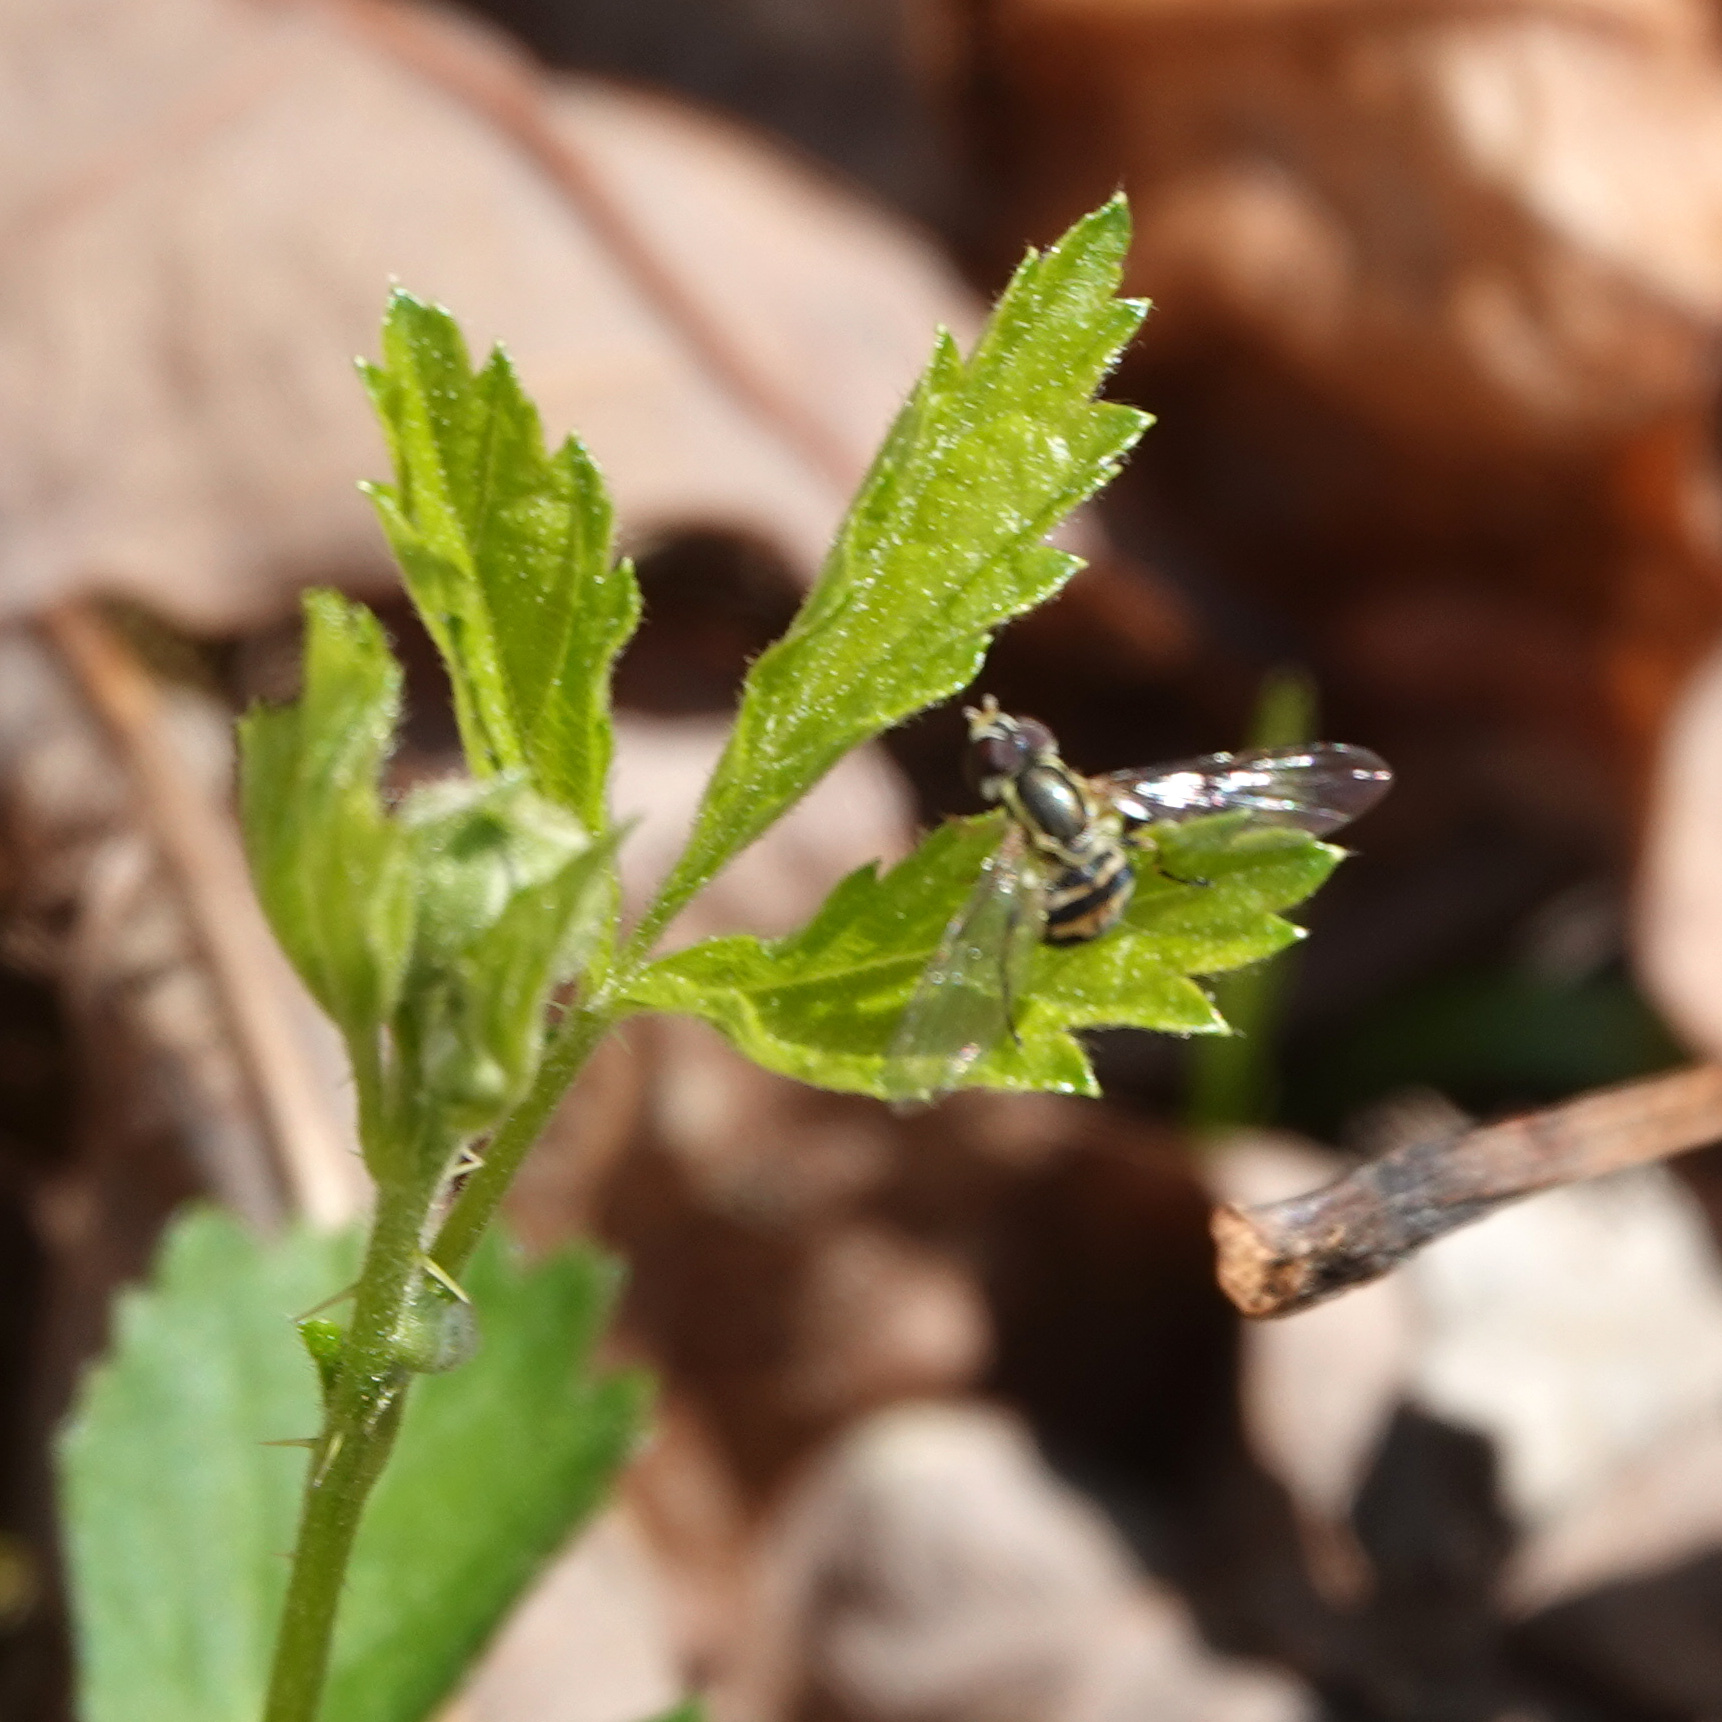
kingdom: Animalia
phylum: Arthropoda
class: Insecta
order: Diptera
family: Syrphidae
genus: Toxomerus
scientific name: Toxomerus geminatus
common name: Eastern calligrapher
